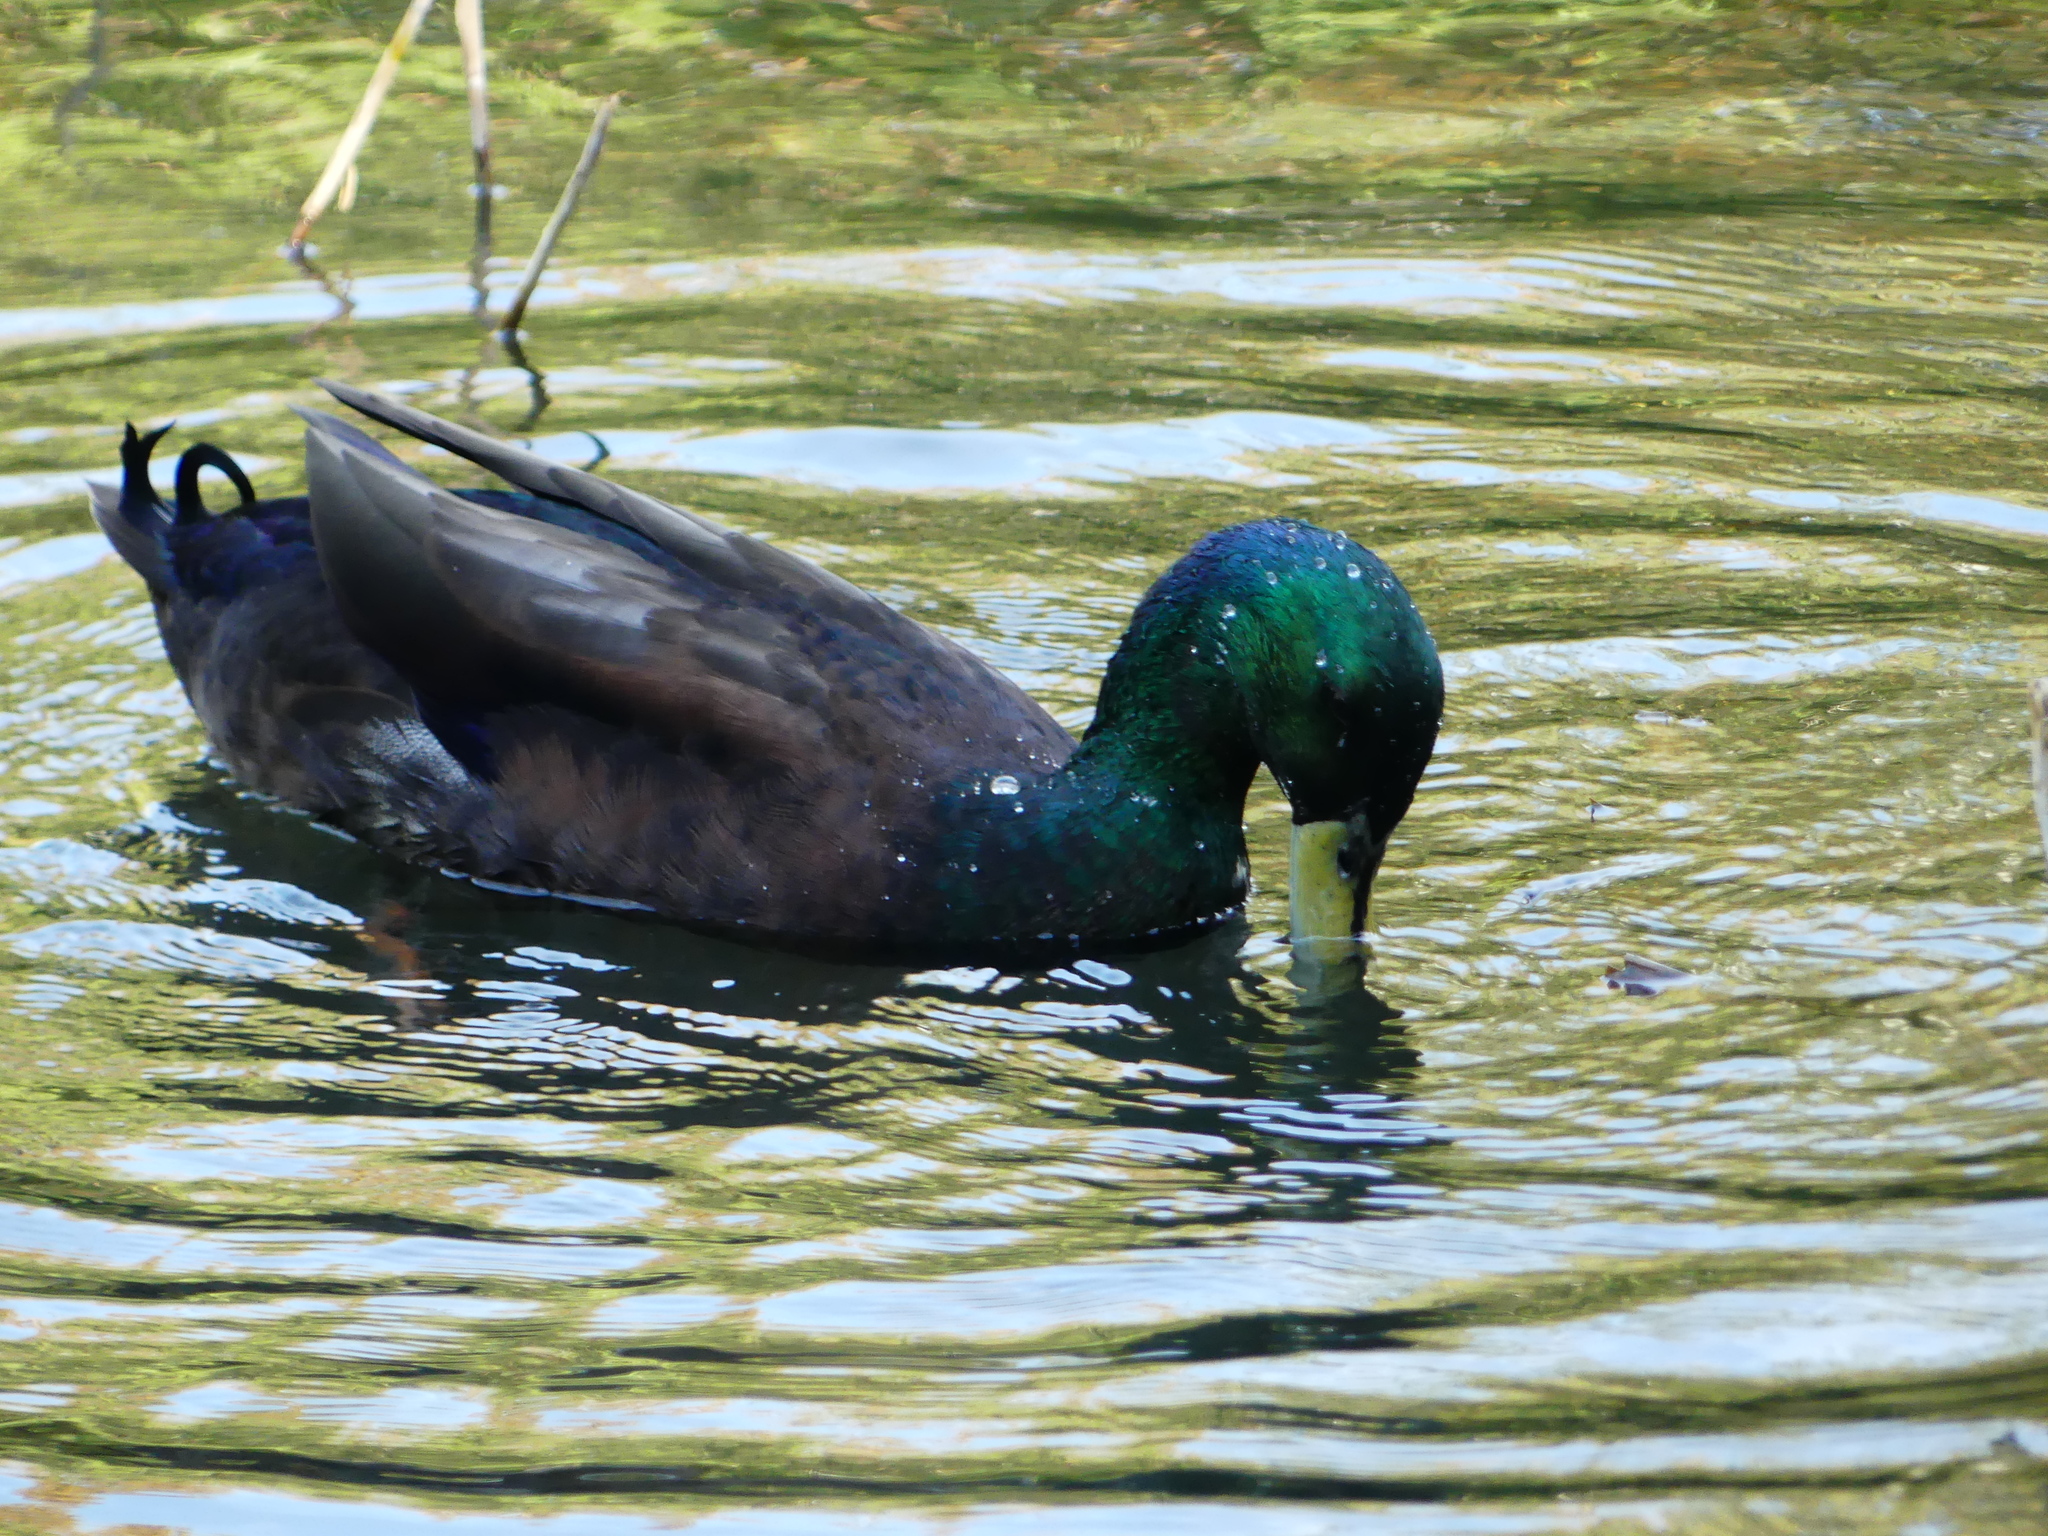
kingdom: Animalia
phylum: Chordata
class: Aves
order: Anseriformes
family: Anatidae
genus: Anas
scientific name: Anas platyrhynchos
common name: Mallard
